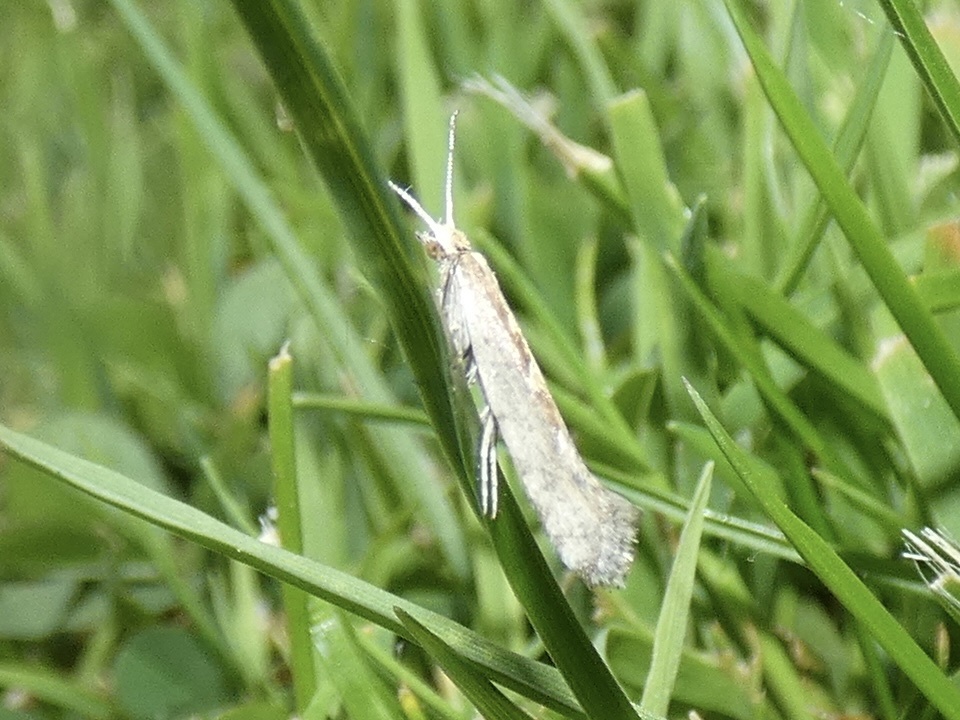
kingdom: Animalia
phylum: Arthropoda
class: Insecta
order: Lepidoptera
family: Plutellidae
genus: Plutella
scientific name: Plutella xylostella
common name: Diamond-back moth
